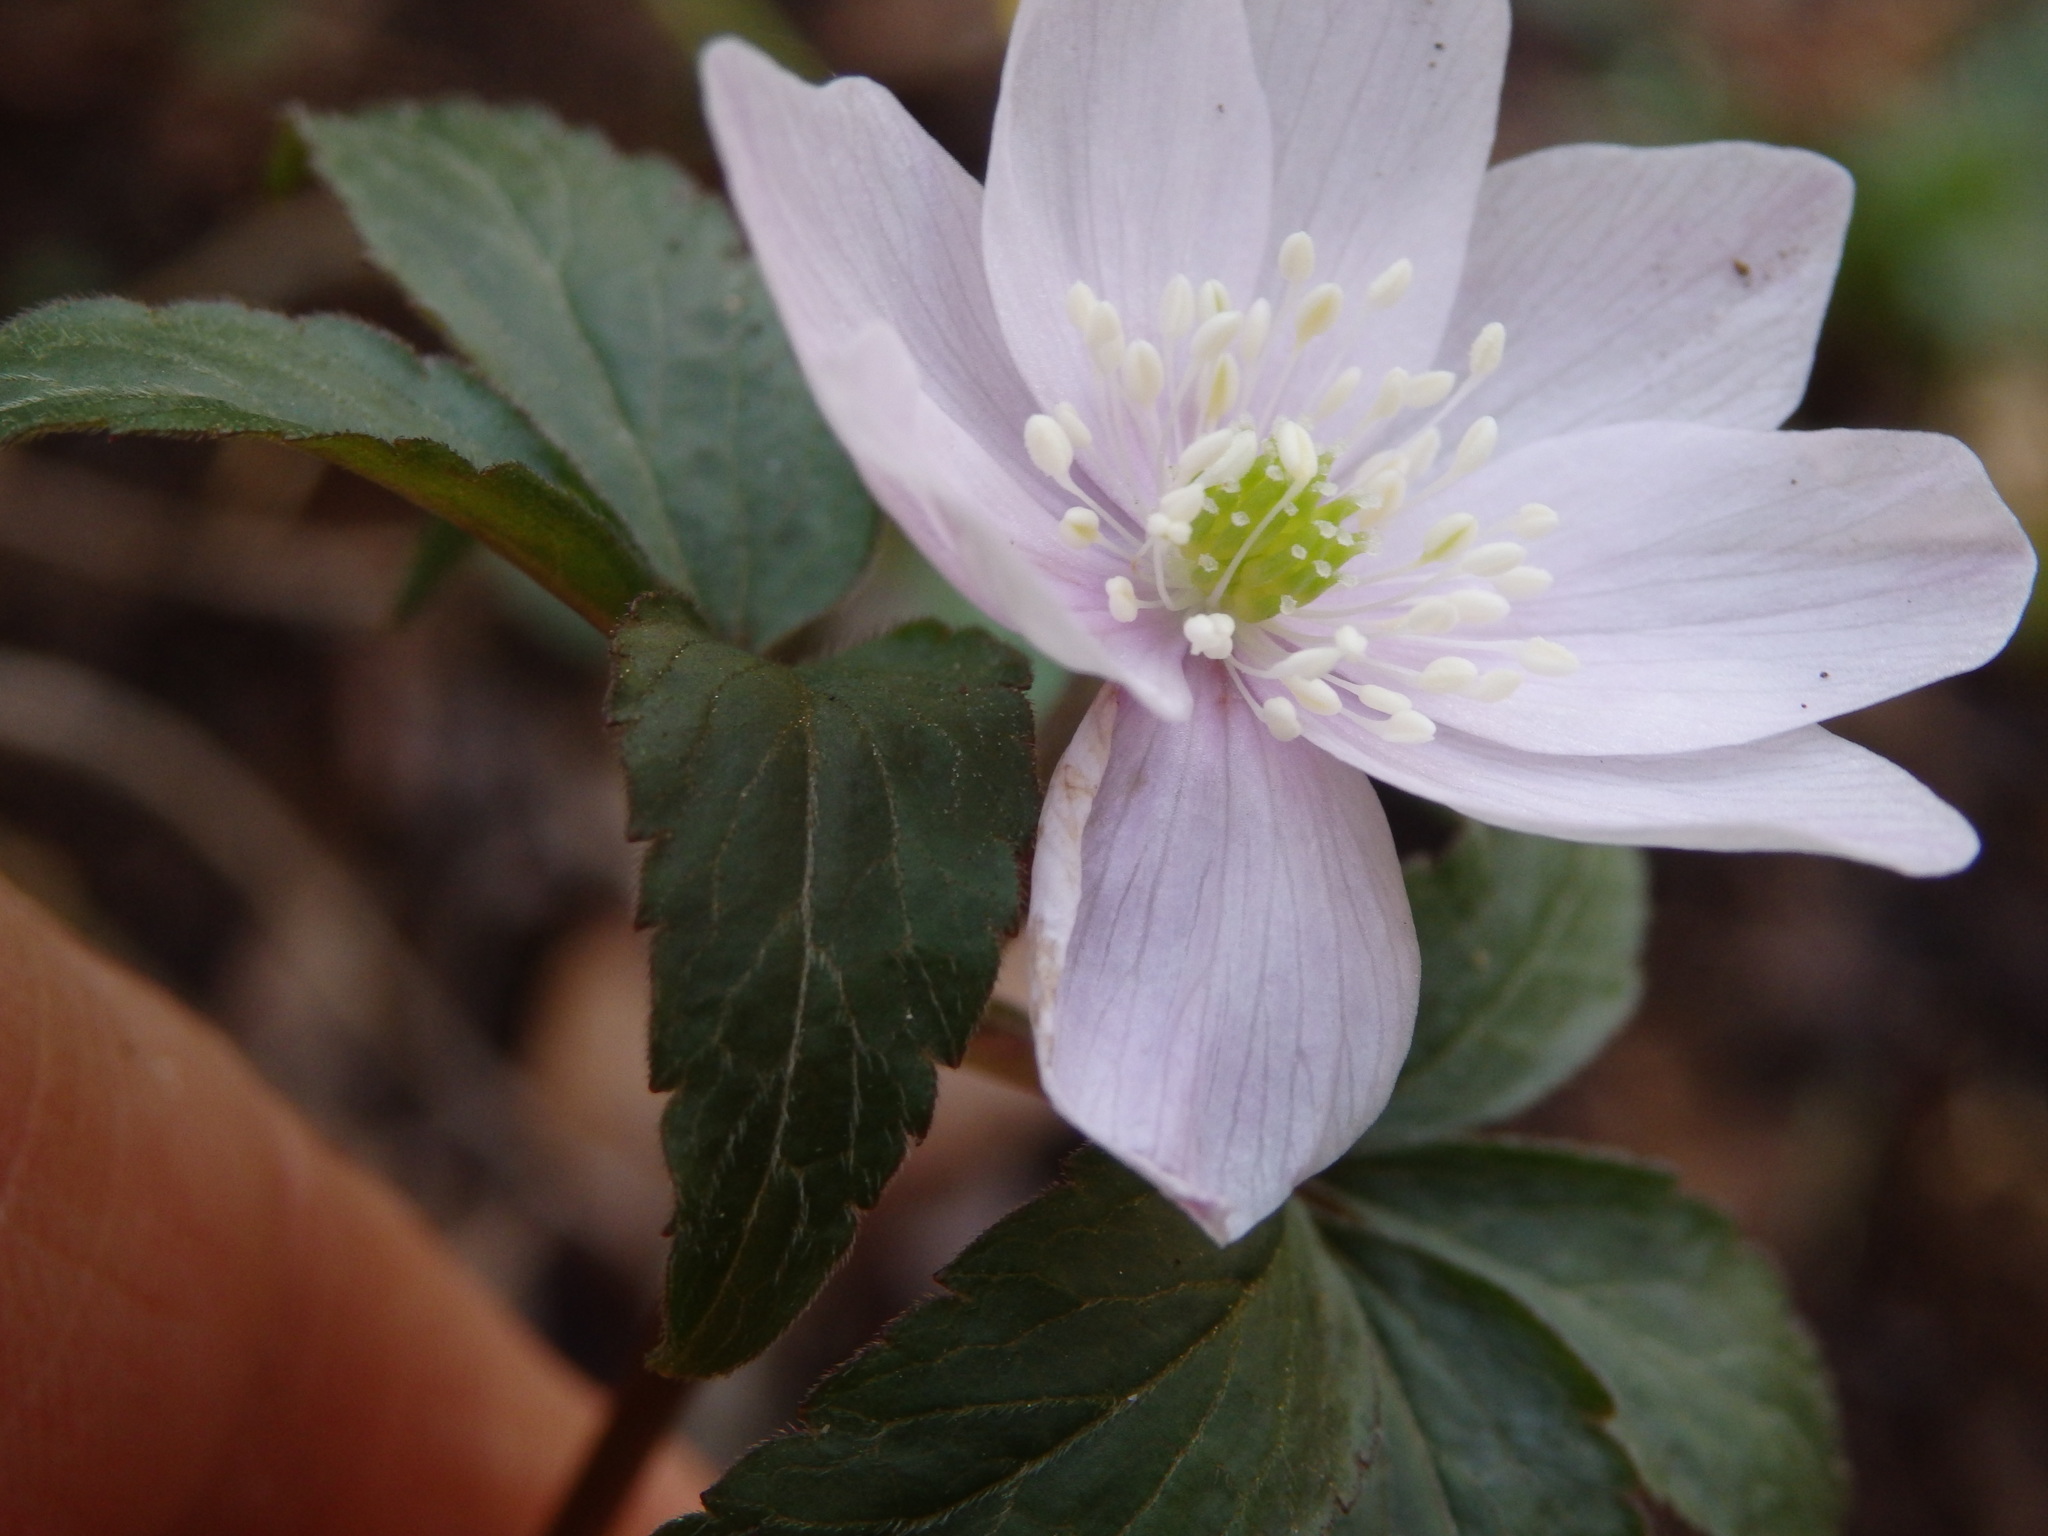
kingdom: Plantae
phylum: Tracheophyta
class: Magnoliopsida
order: Ranunculales
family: Ranunculaceae
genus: Anemone
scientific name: Anemone trifolia
